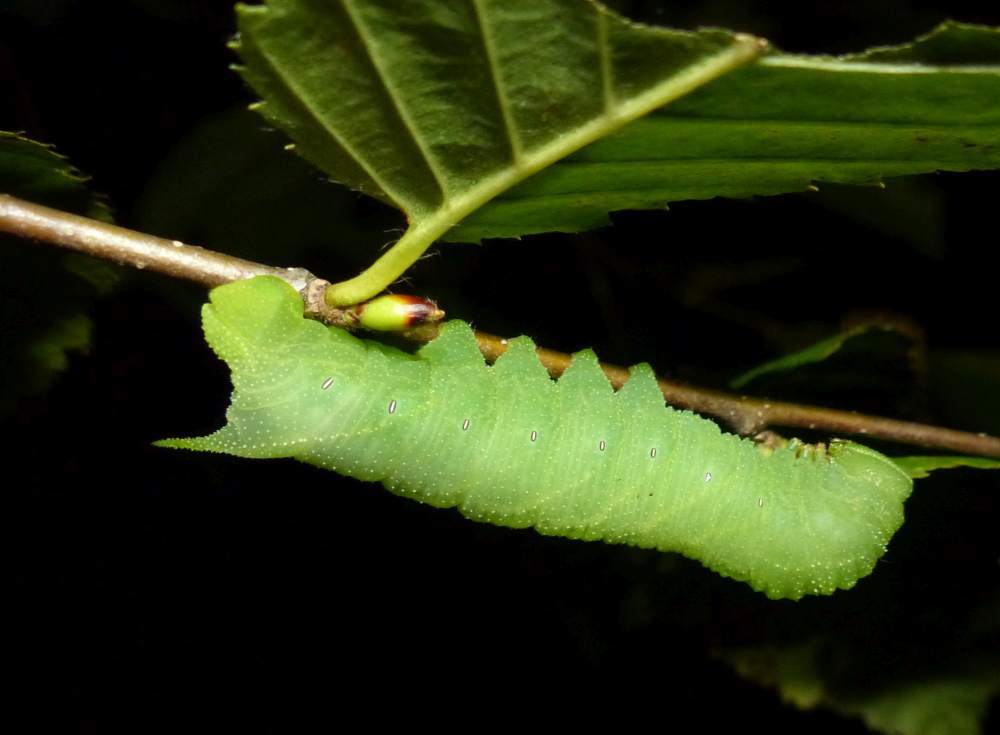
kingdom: Animalia
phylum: Arthropoda
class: Insecta
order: Lepidoptera
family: Sphingidae
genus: Paonias
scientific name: Paonias excaecata
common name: Blind-eyed sphinx
